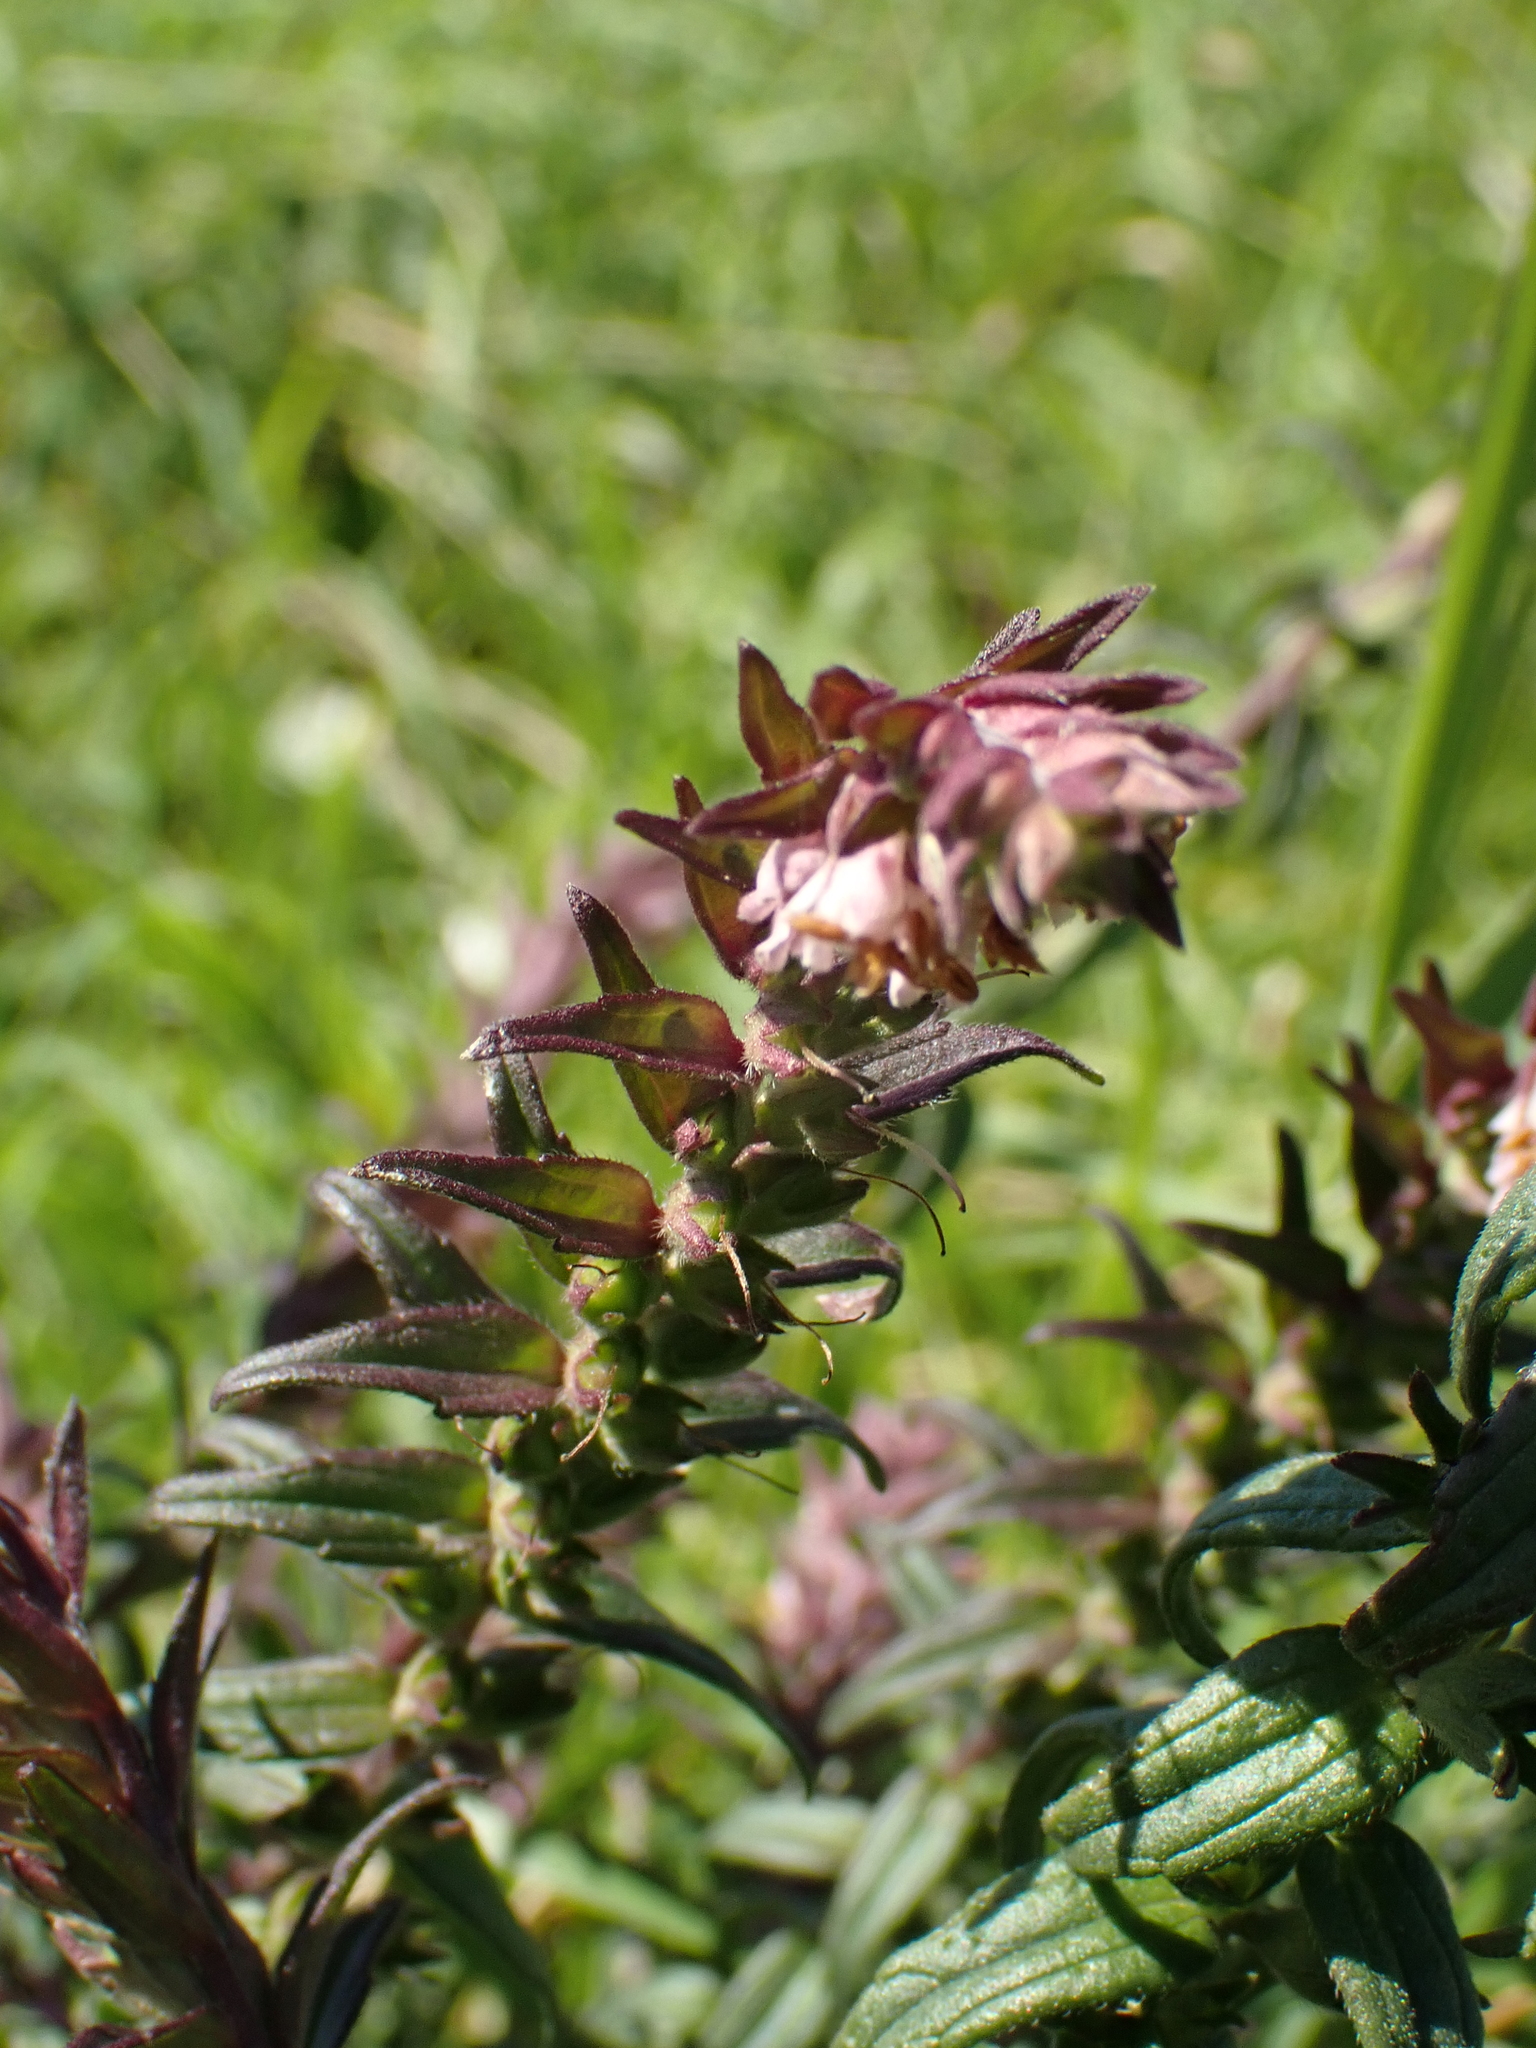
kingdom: Plantae
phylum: Tracheophyta
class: Magnoliopsida
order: Lamiales
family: Orobanchaceae
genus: Odontites
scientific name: Odontites vulgaris
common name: Broomrape
